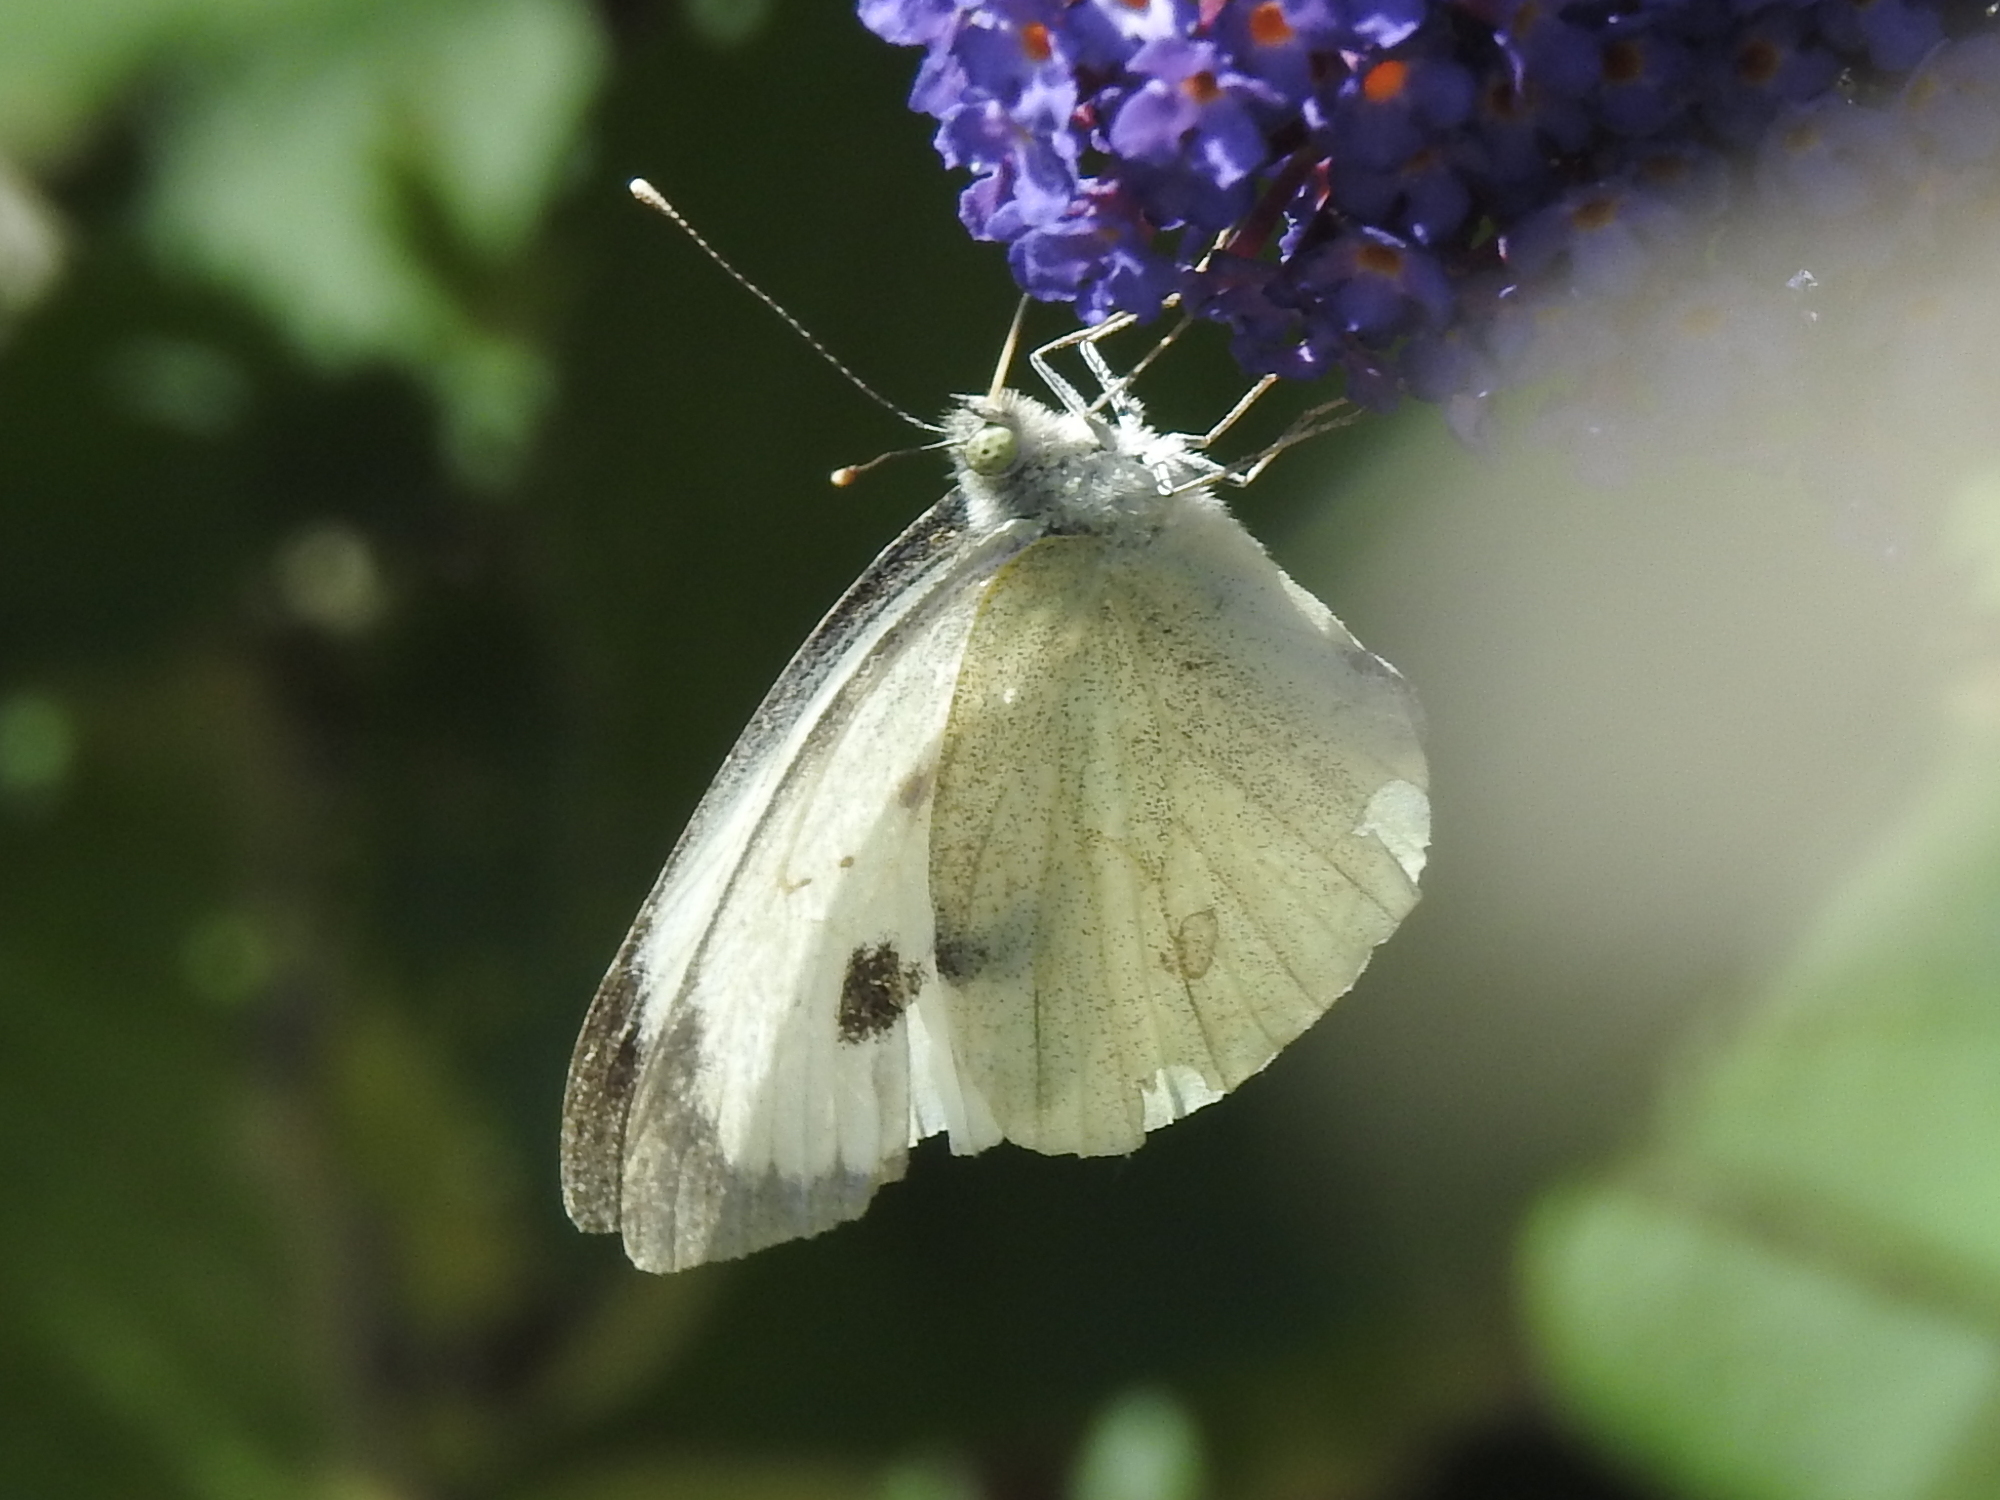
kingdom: Animalia
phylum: Arthropoda
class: Insecta
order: Lepidoptera
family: Pieridae
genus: Pieris
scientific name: Pieris brassicae
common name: Large white
